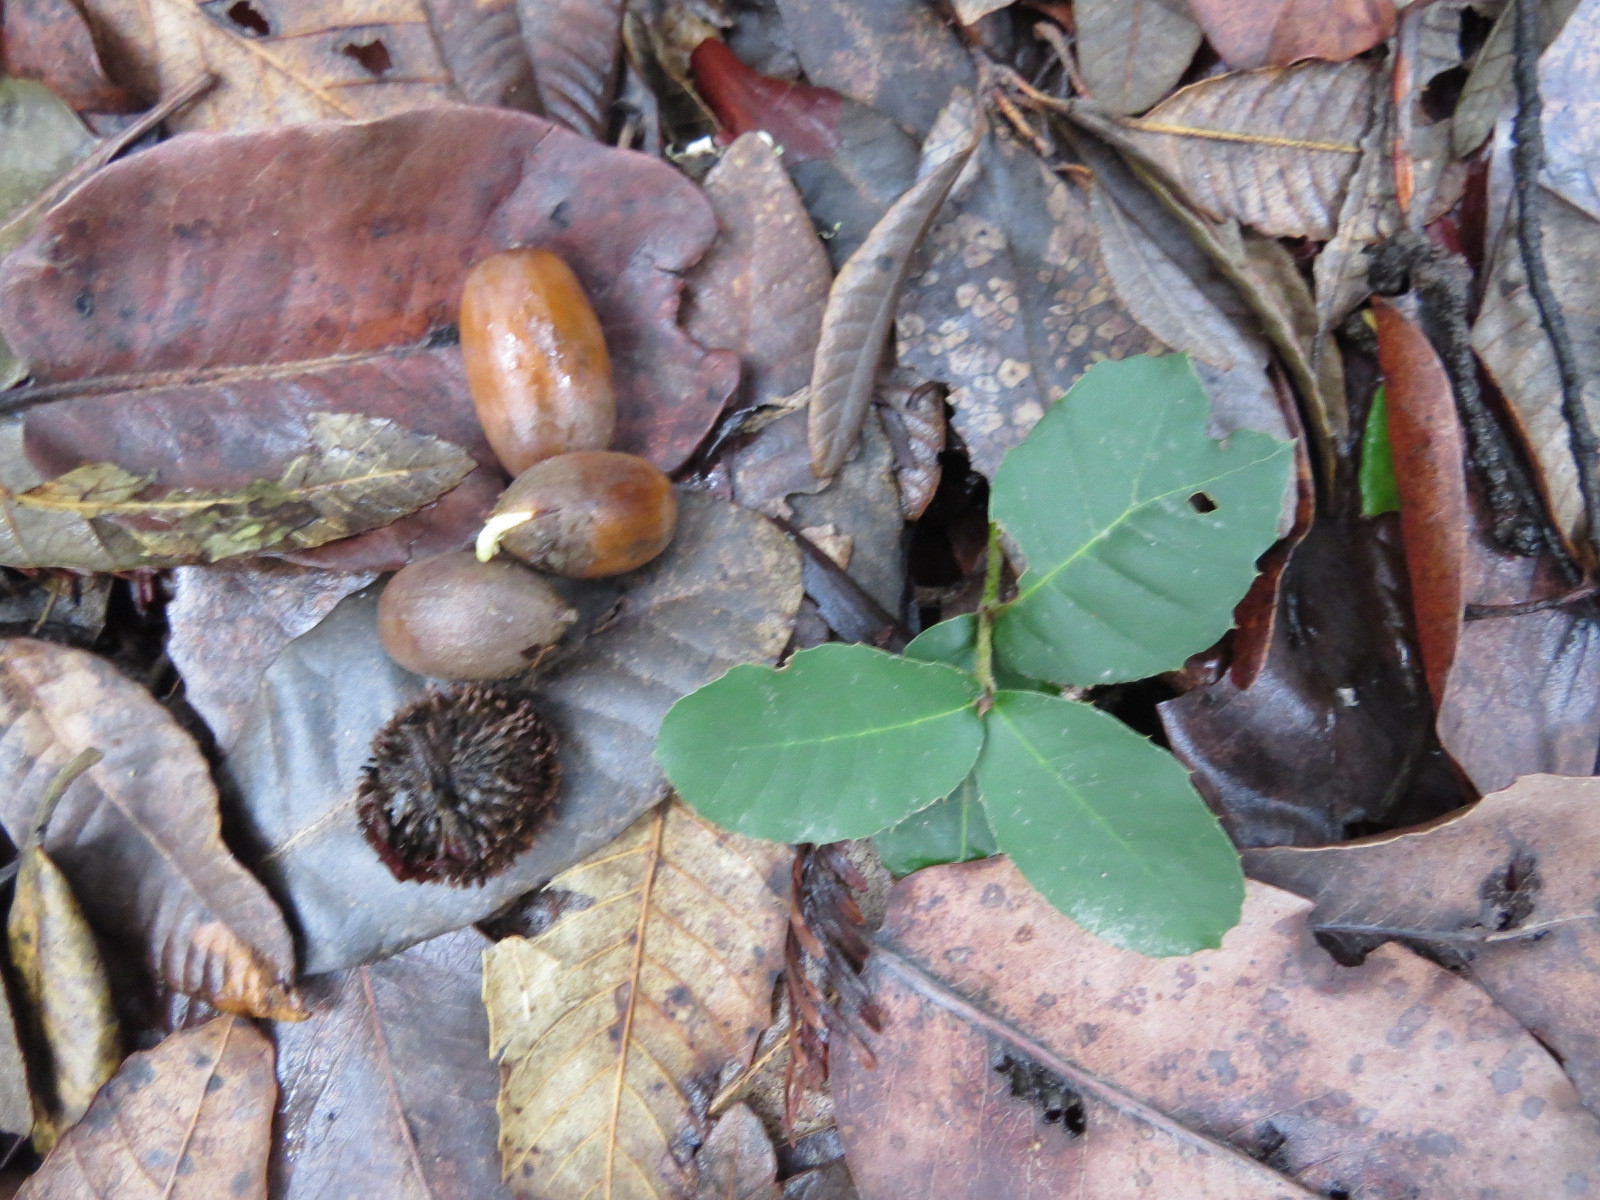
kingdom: Plantae
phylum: Tracheophyta
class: Magnoliopsida
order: Fagales
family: Fagaceae
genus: Notholithocarpus
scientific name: Notholithocarpus densiflorus
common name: Tan bark oak
